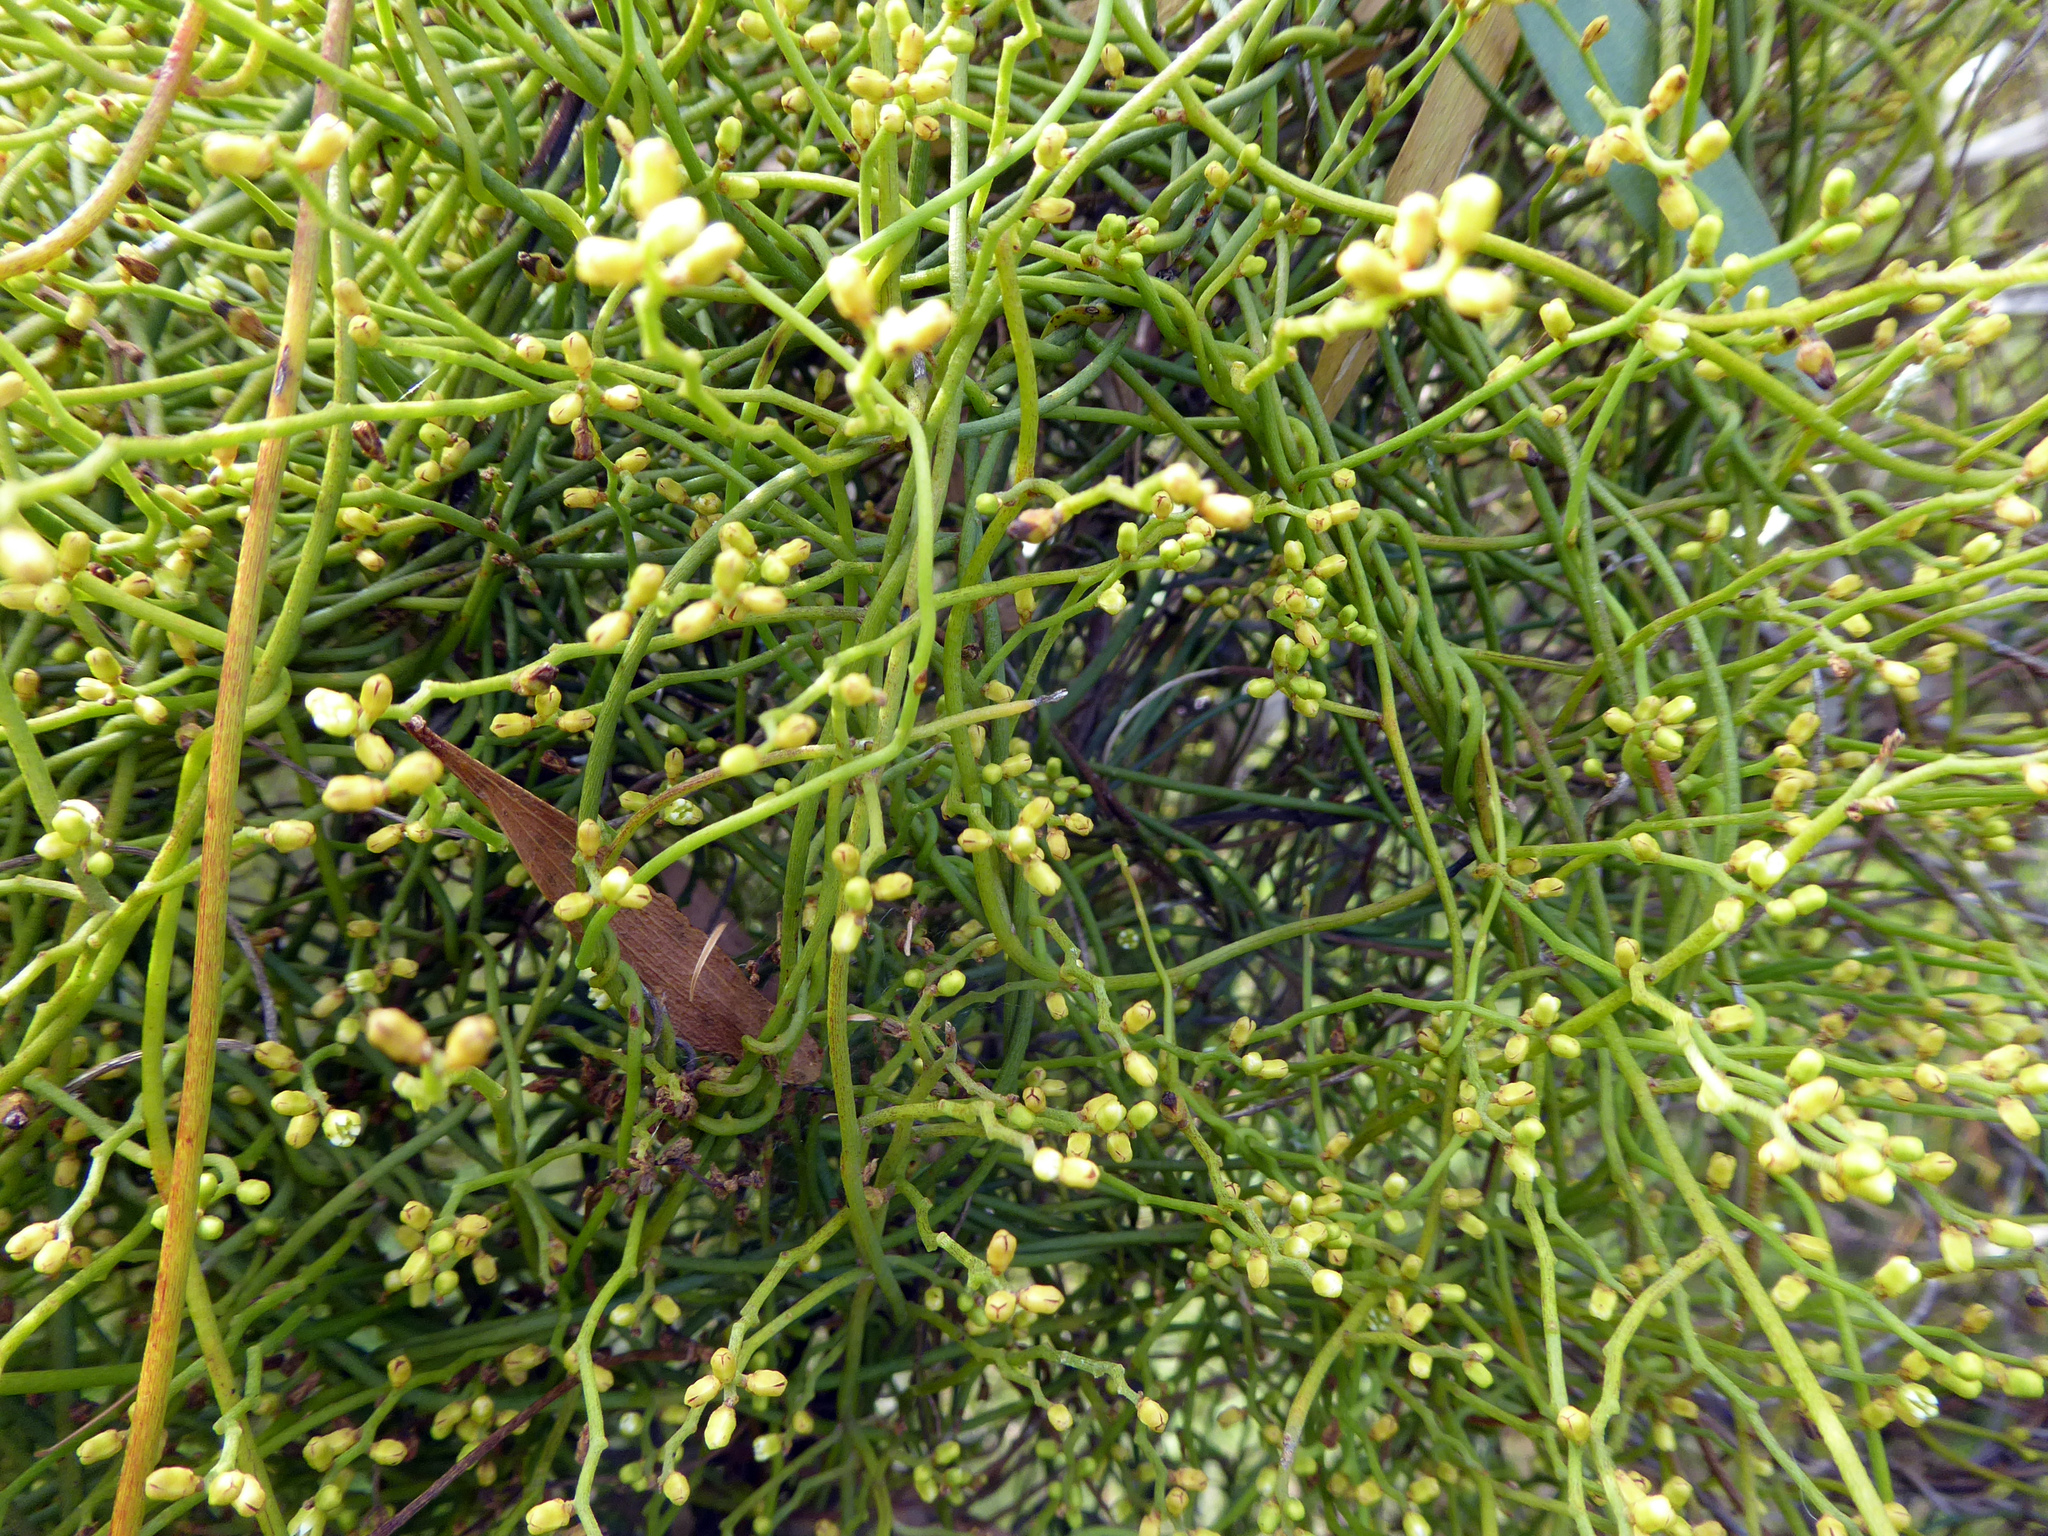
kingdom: Plantae
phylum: Tracheophyta
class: Magnoliopsida
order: Laurales
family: Lauraceae
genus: Cassytha
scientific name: Cassytha paniculata
